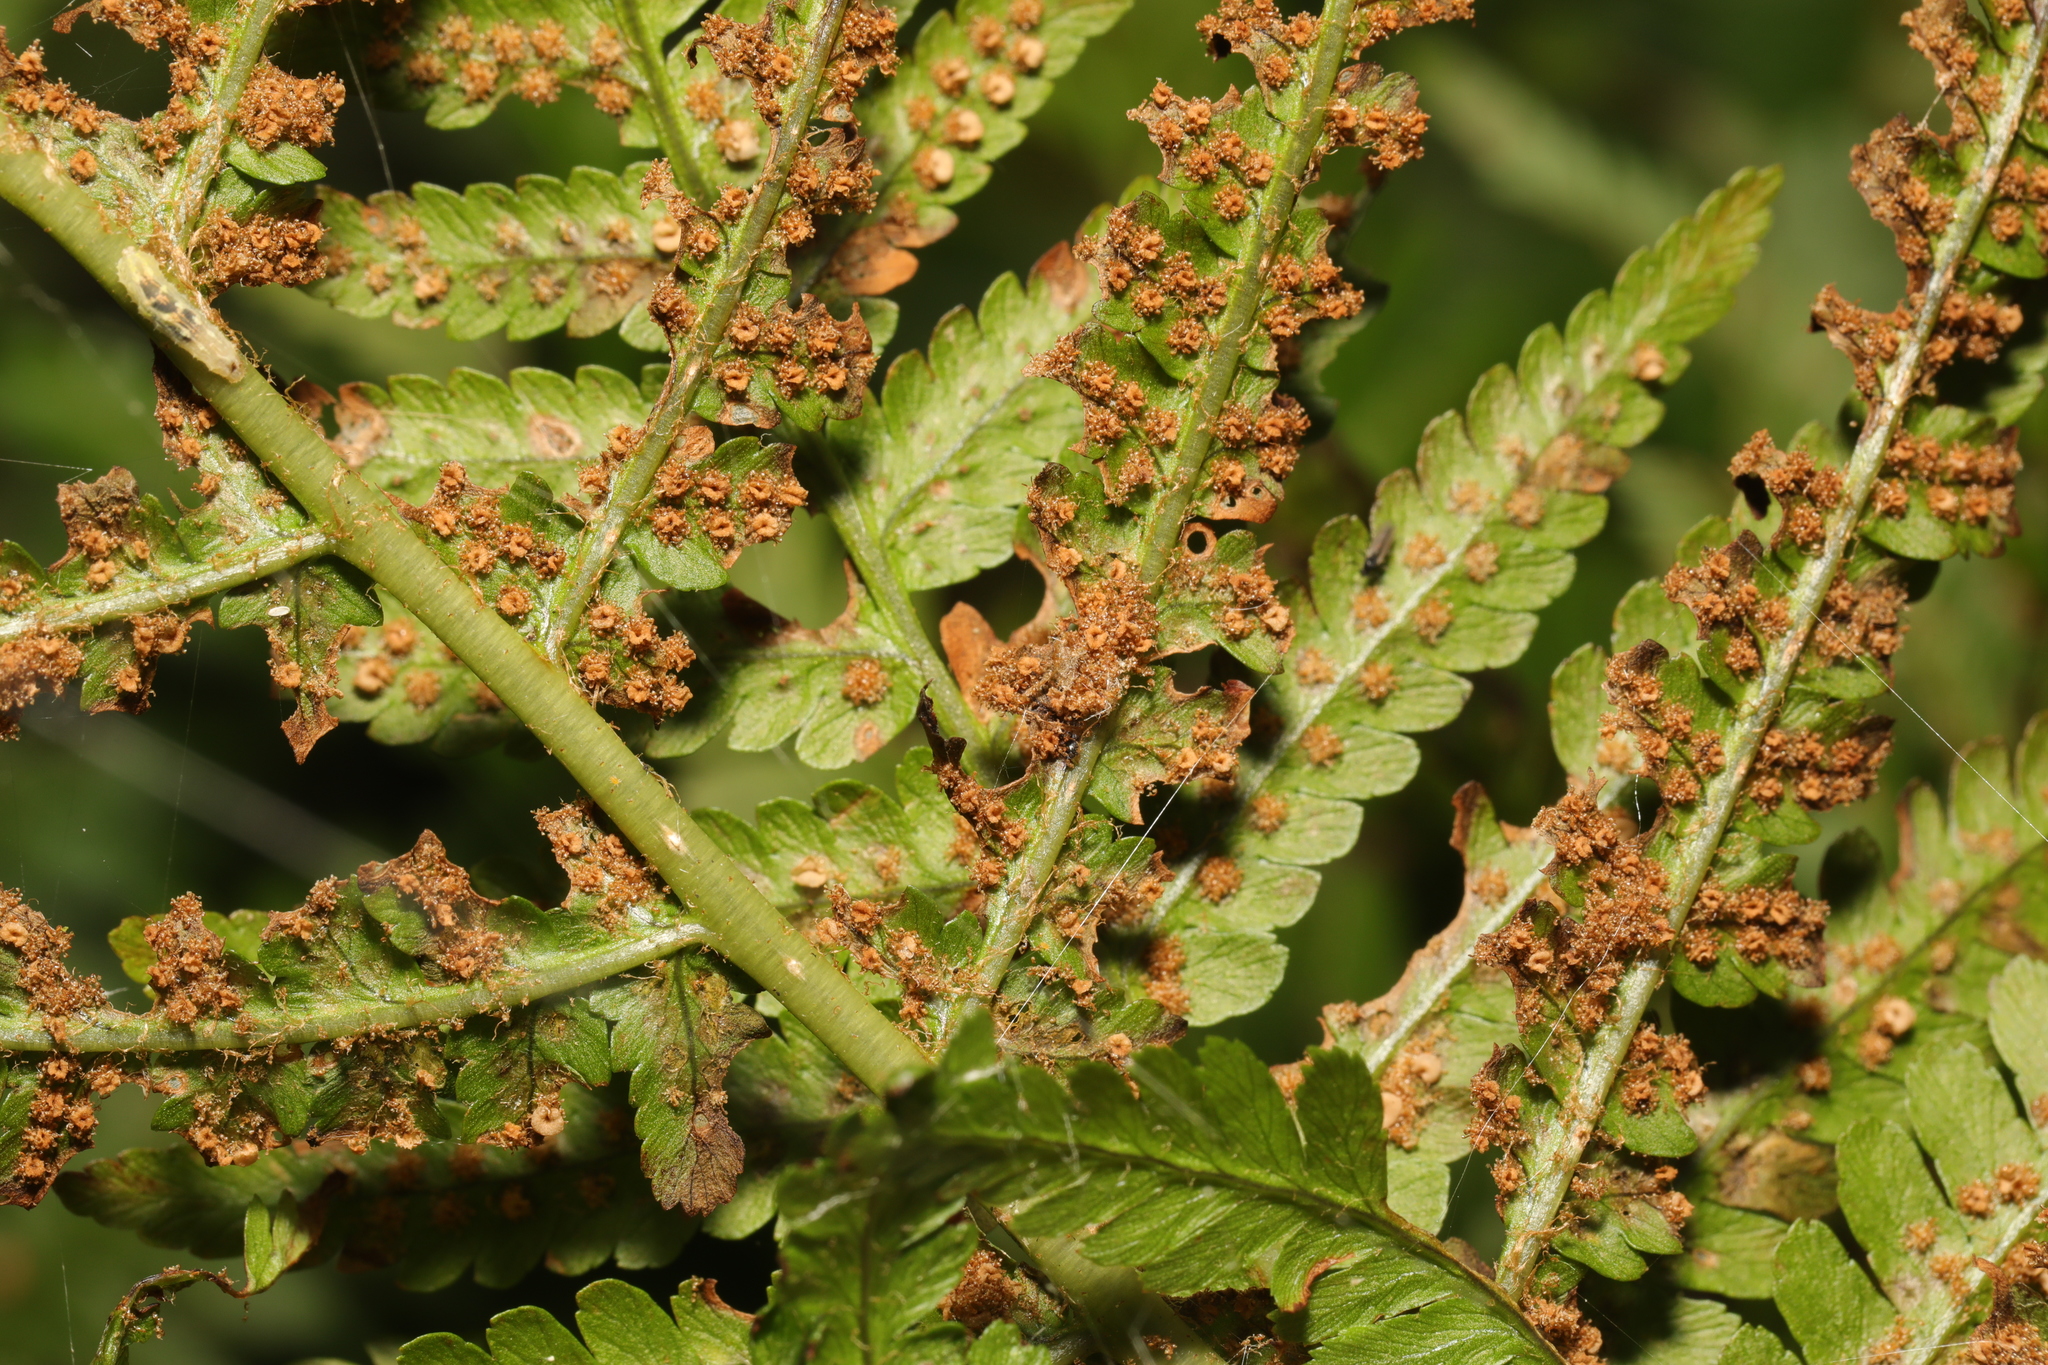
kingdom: Plantae
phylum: Tracheophyta
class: Polypodiopsida
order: Polypodiales
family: Dryopteridaceae
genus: Dryopteris
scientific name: Dryopteris filix-mas
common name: Male fern
